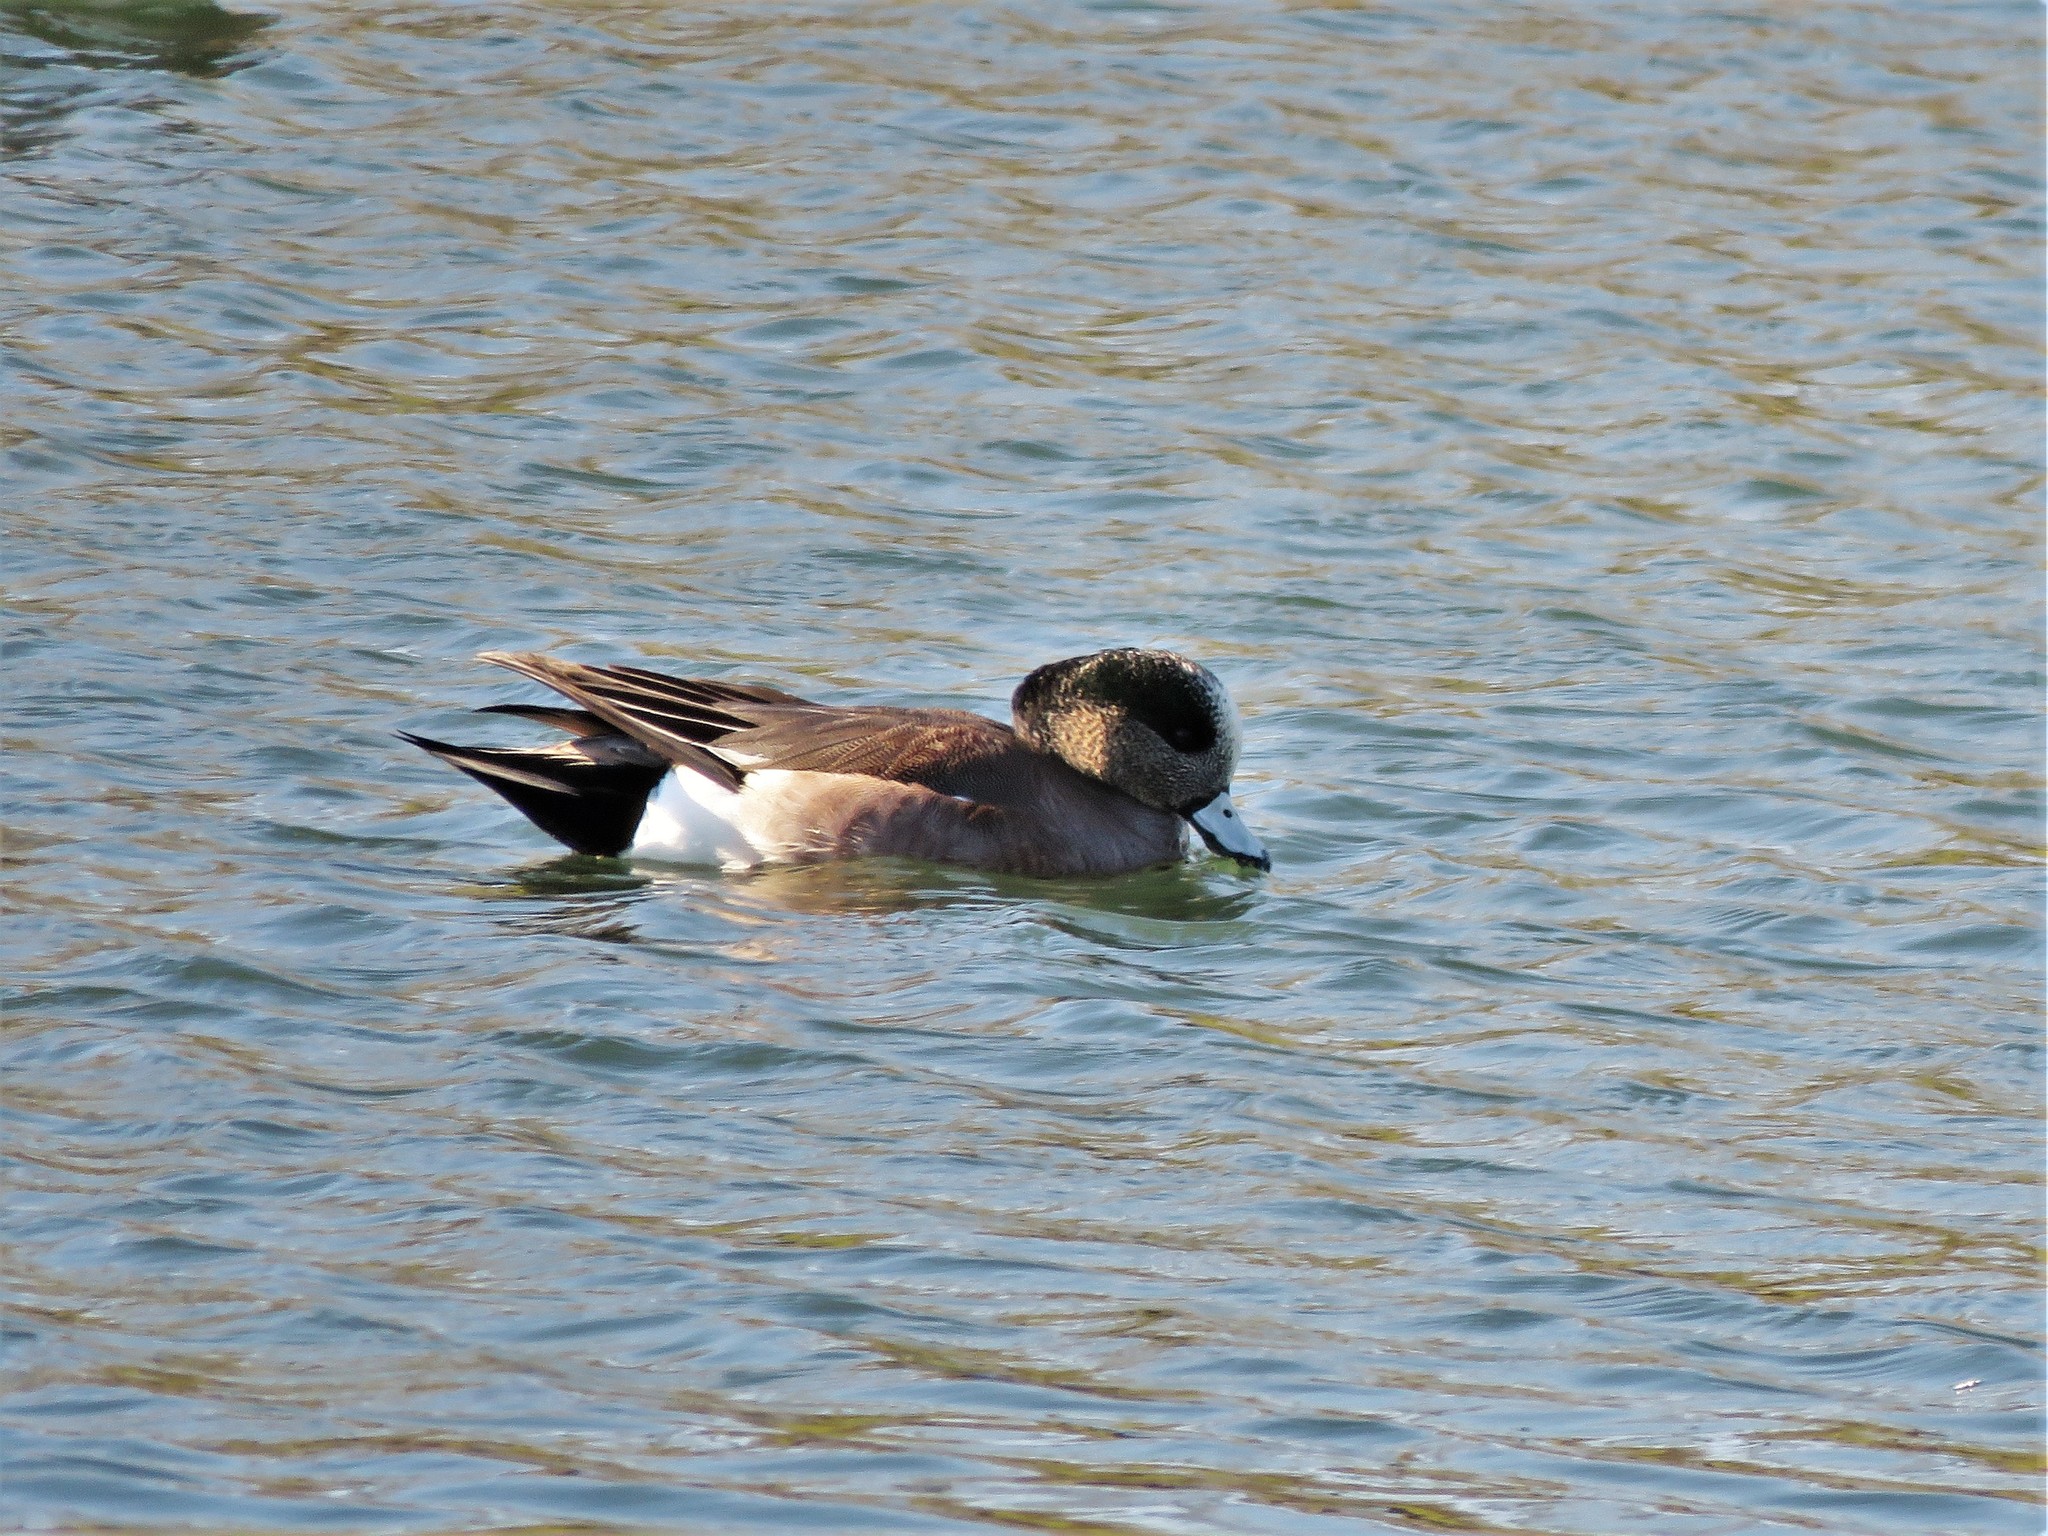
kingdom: Animalia
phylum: Chordata
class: Aves
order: Anseriformes
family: Anatidae
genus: Mareca
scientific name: Mareca americana
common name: American wigeon
